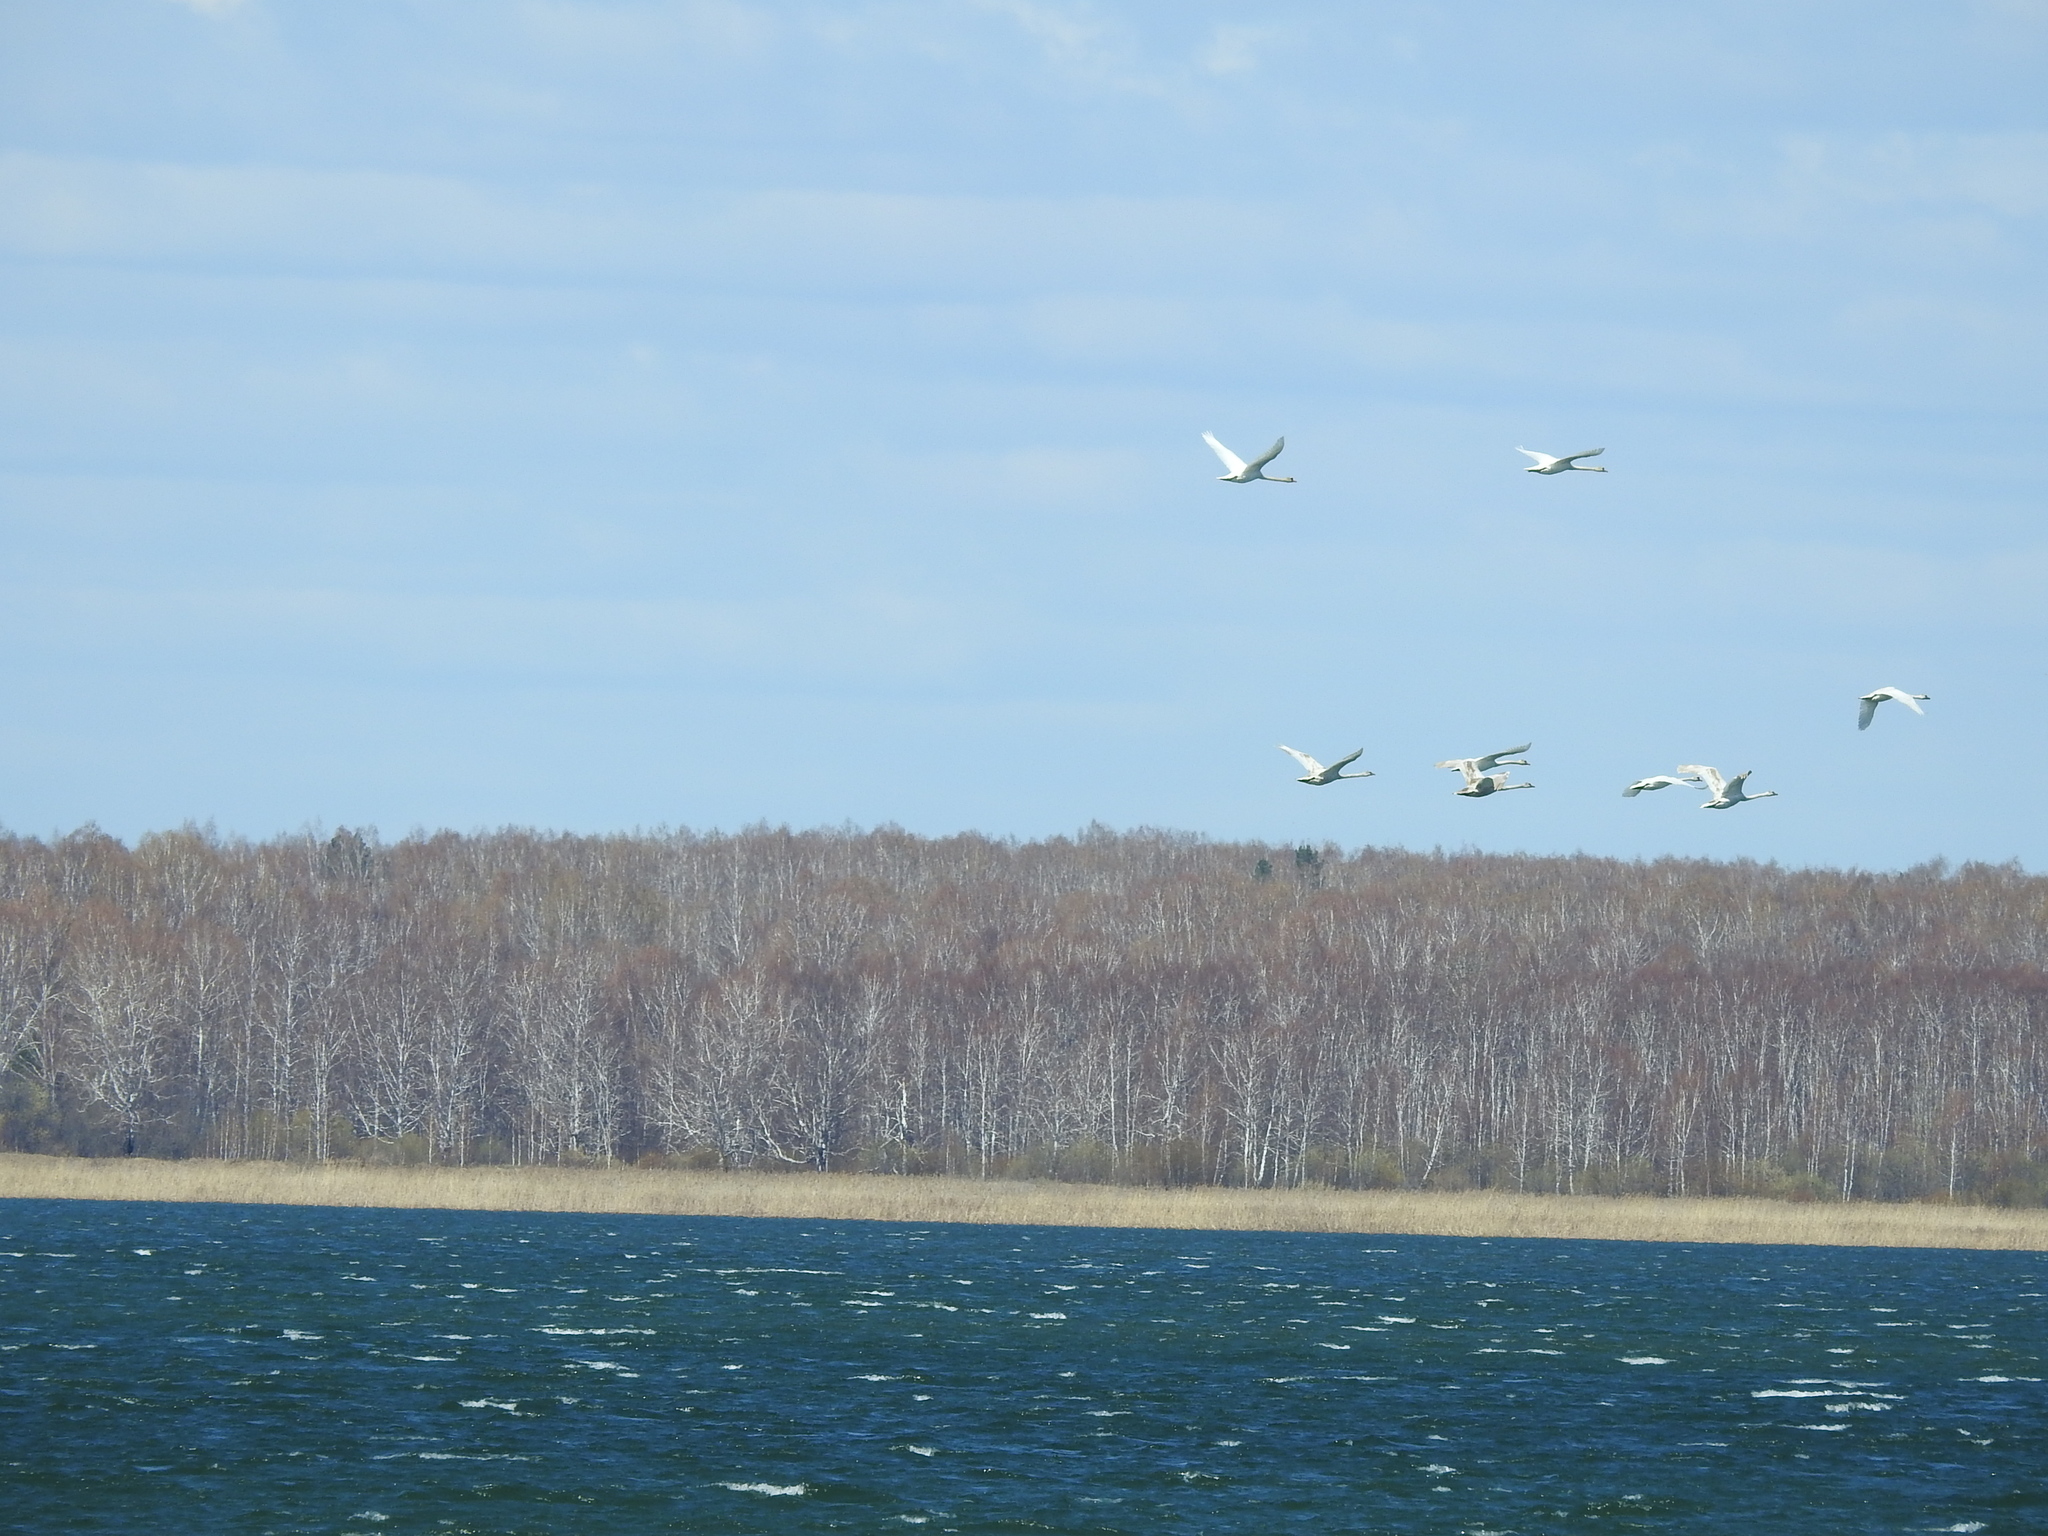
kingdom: Animalia
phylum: Chordata
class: Aves
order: Anseriformes
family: Anatidae
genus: Cygnus
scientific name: Cygnus olor
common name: Mute swan
